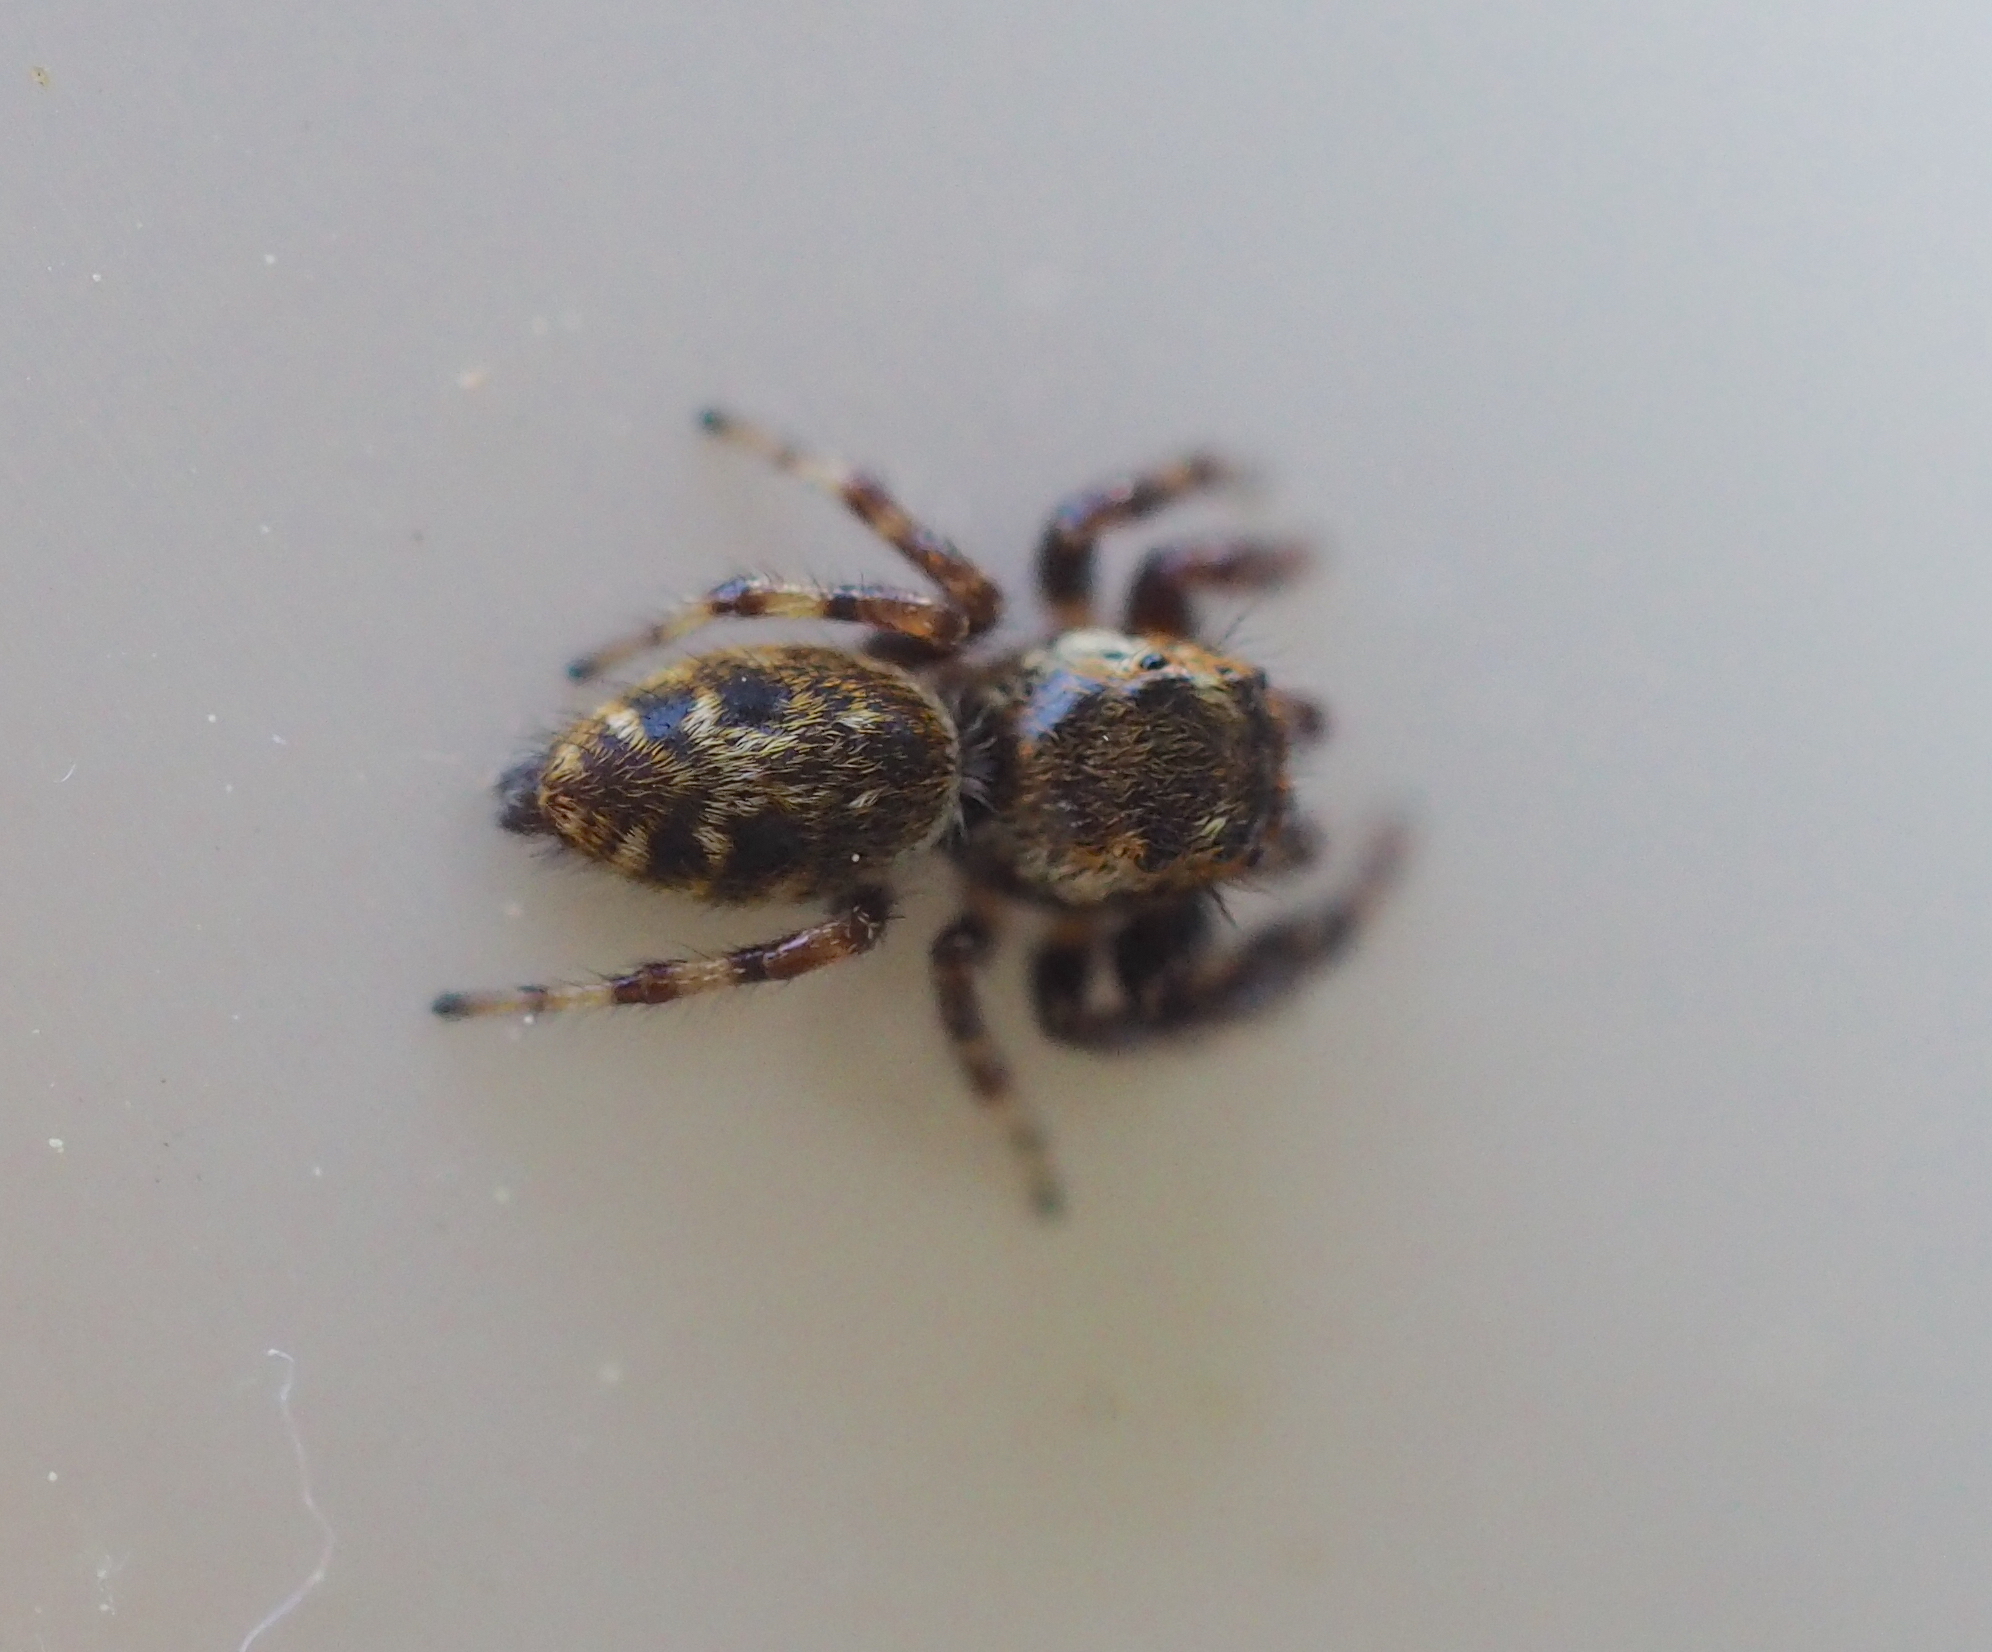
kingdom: Animalia
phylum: Arthropoda
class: Arachnida
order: Araneae
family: Salticidae
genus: Macaroeris
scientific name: Macaroeris nidicolens
